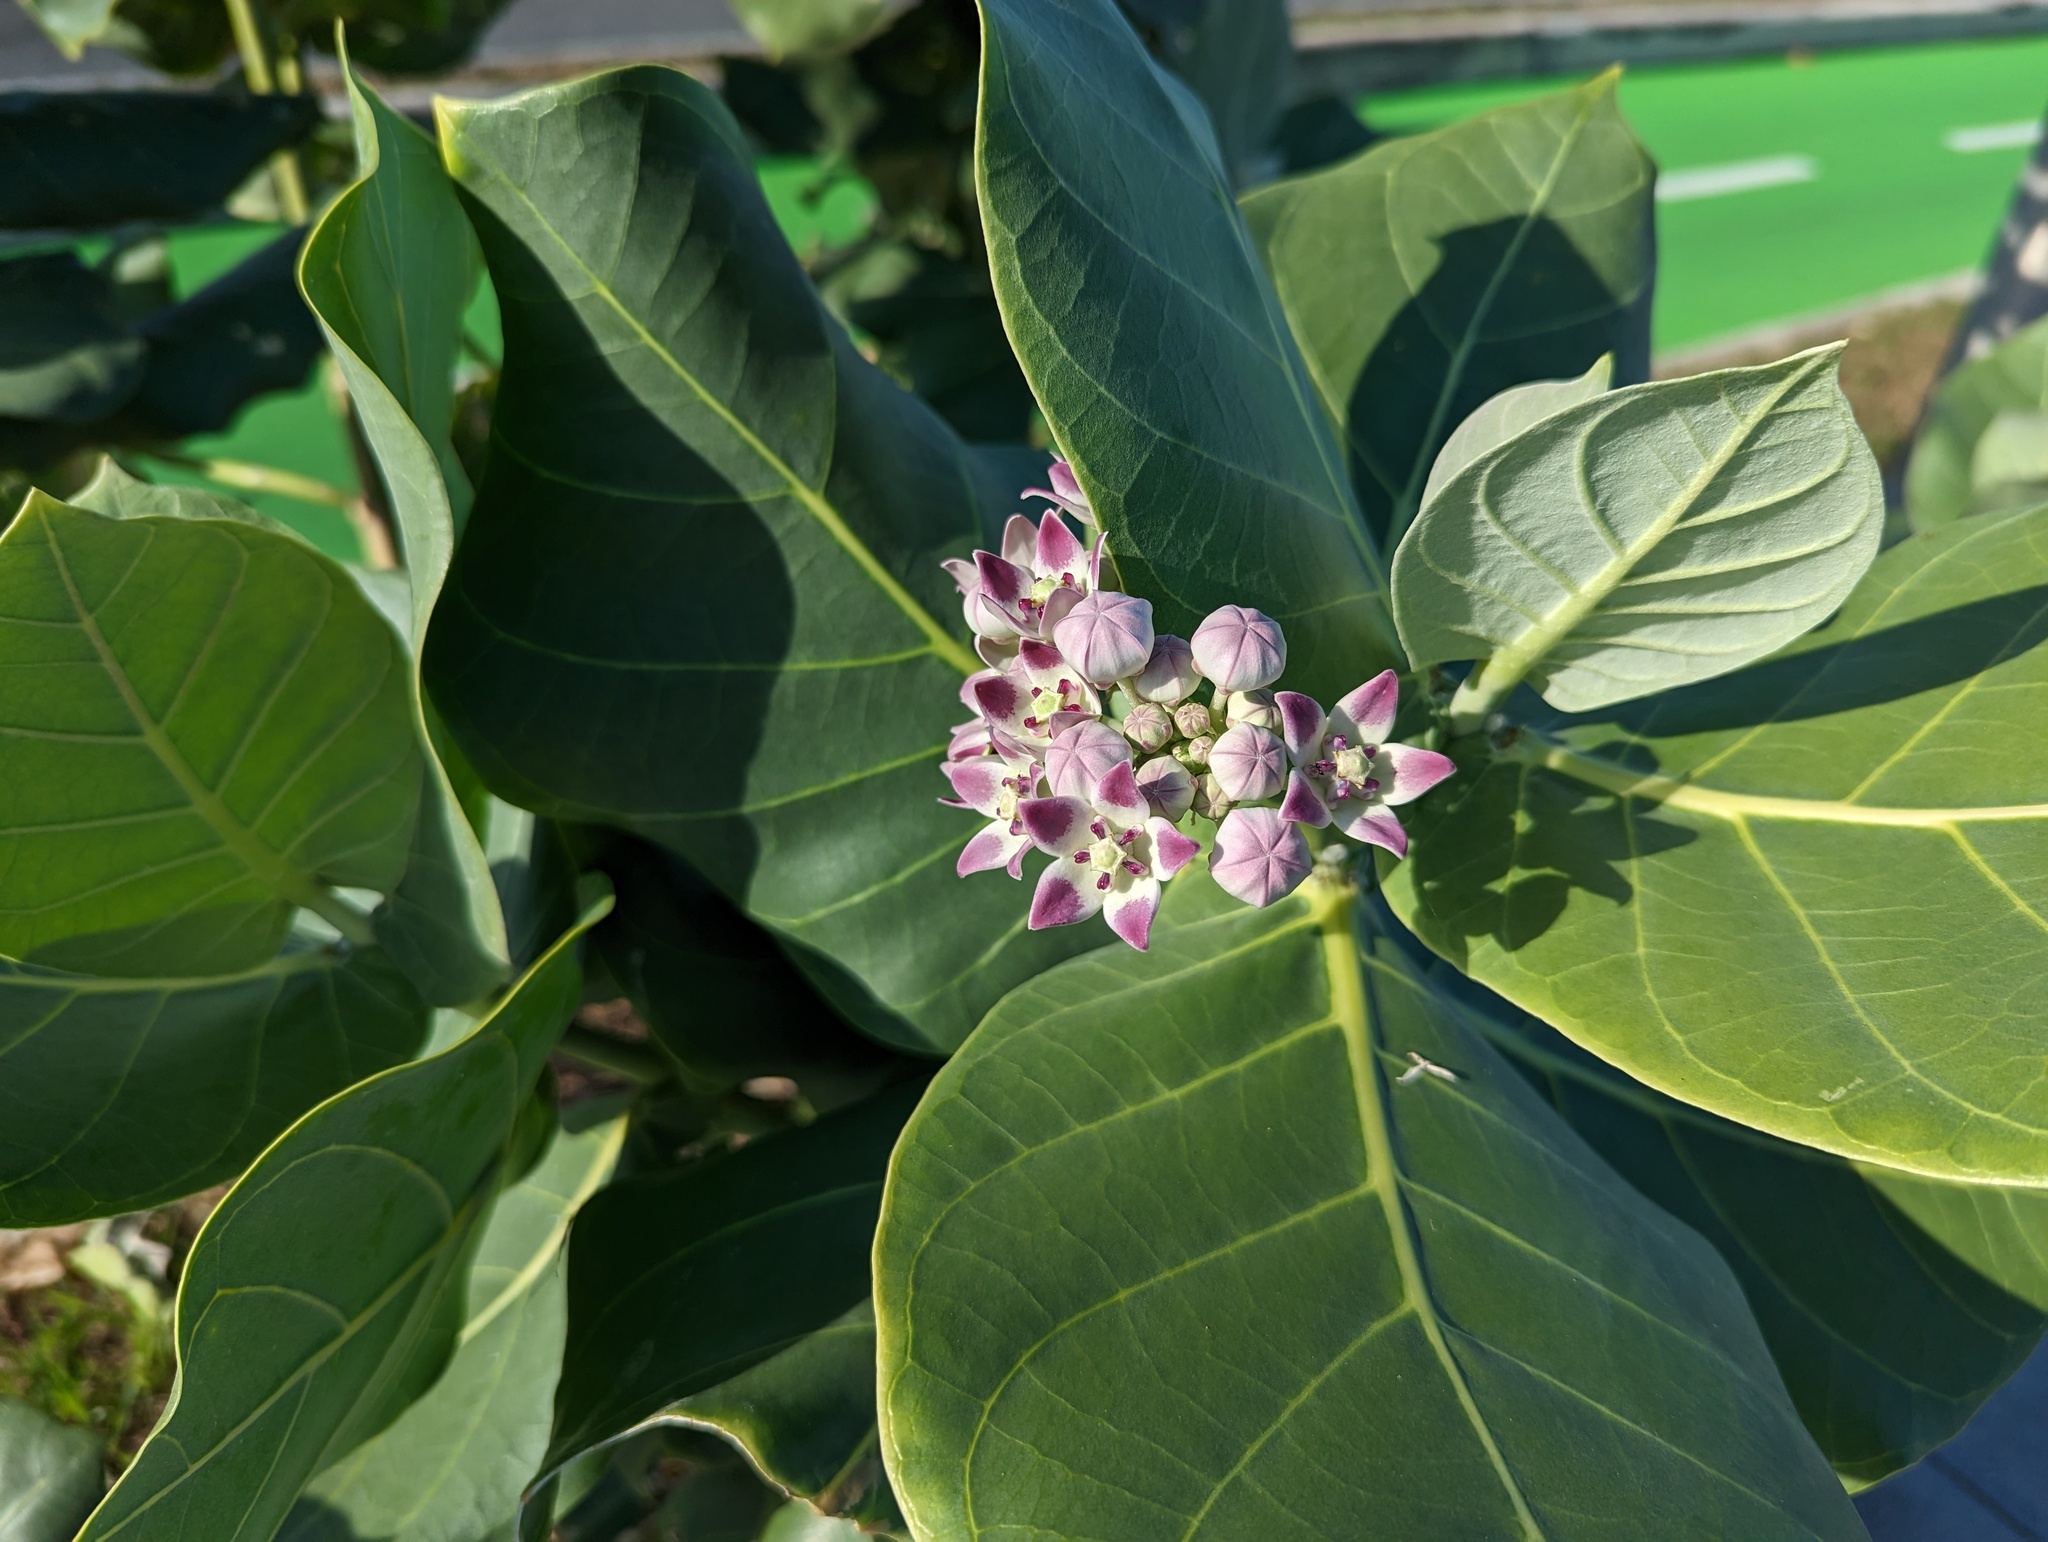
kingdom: Plantae
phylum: Tracheophyta
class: Magnoliopsida
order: Gentianales
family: Apocynaceae
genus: Calotropis
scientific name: Calotropis procera
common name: Roostertree
